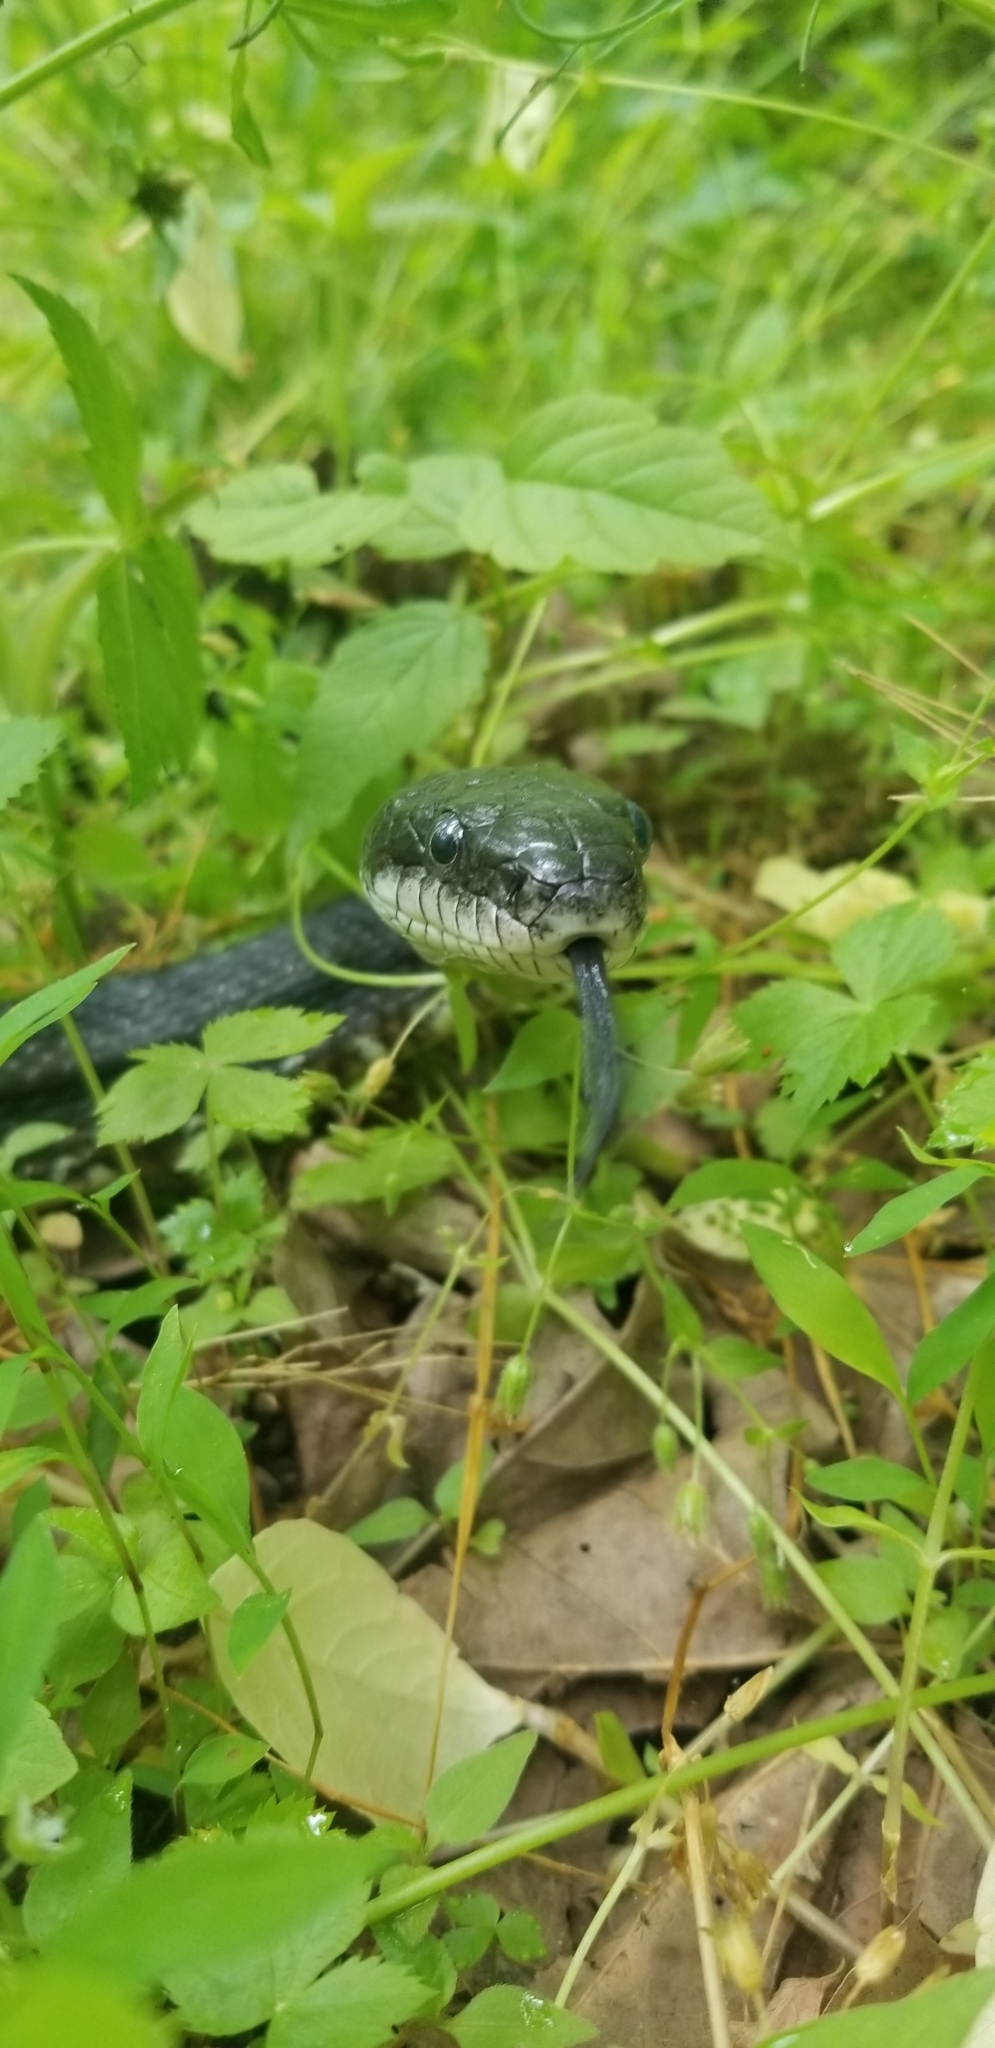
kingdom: Animalia
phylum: Chordata
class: Squamata
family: Colubridae
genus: Pantherophis
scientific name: Pantherophis
